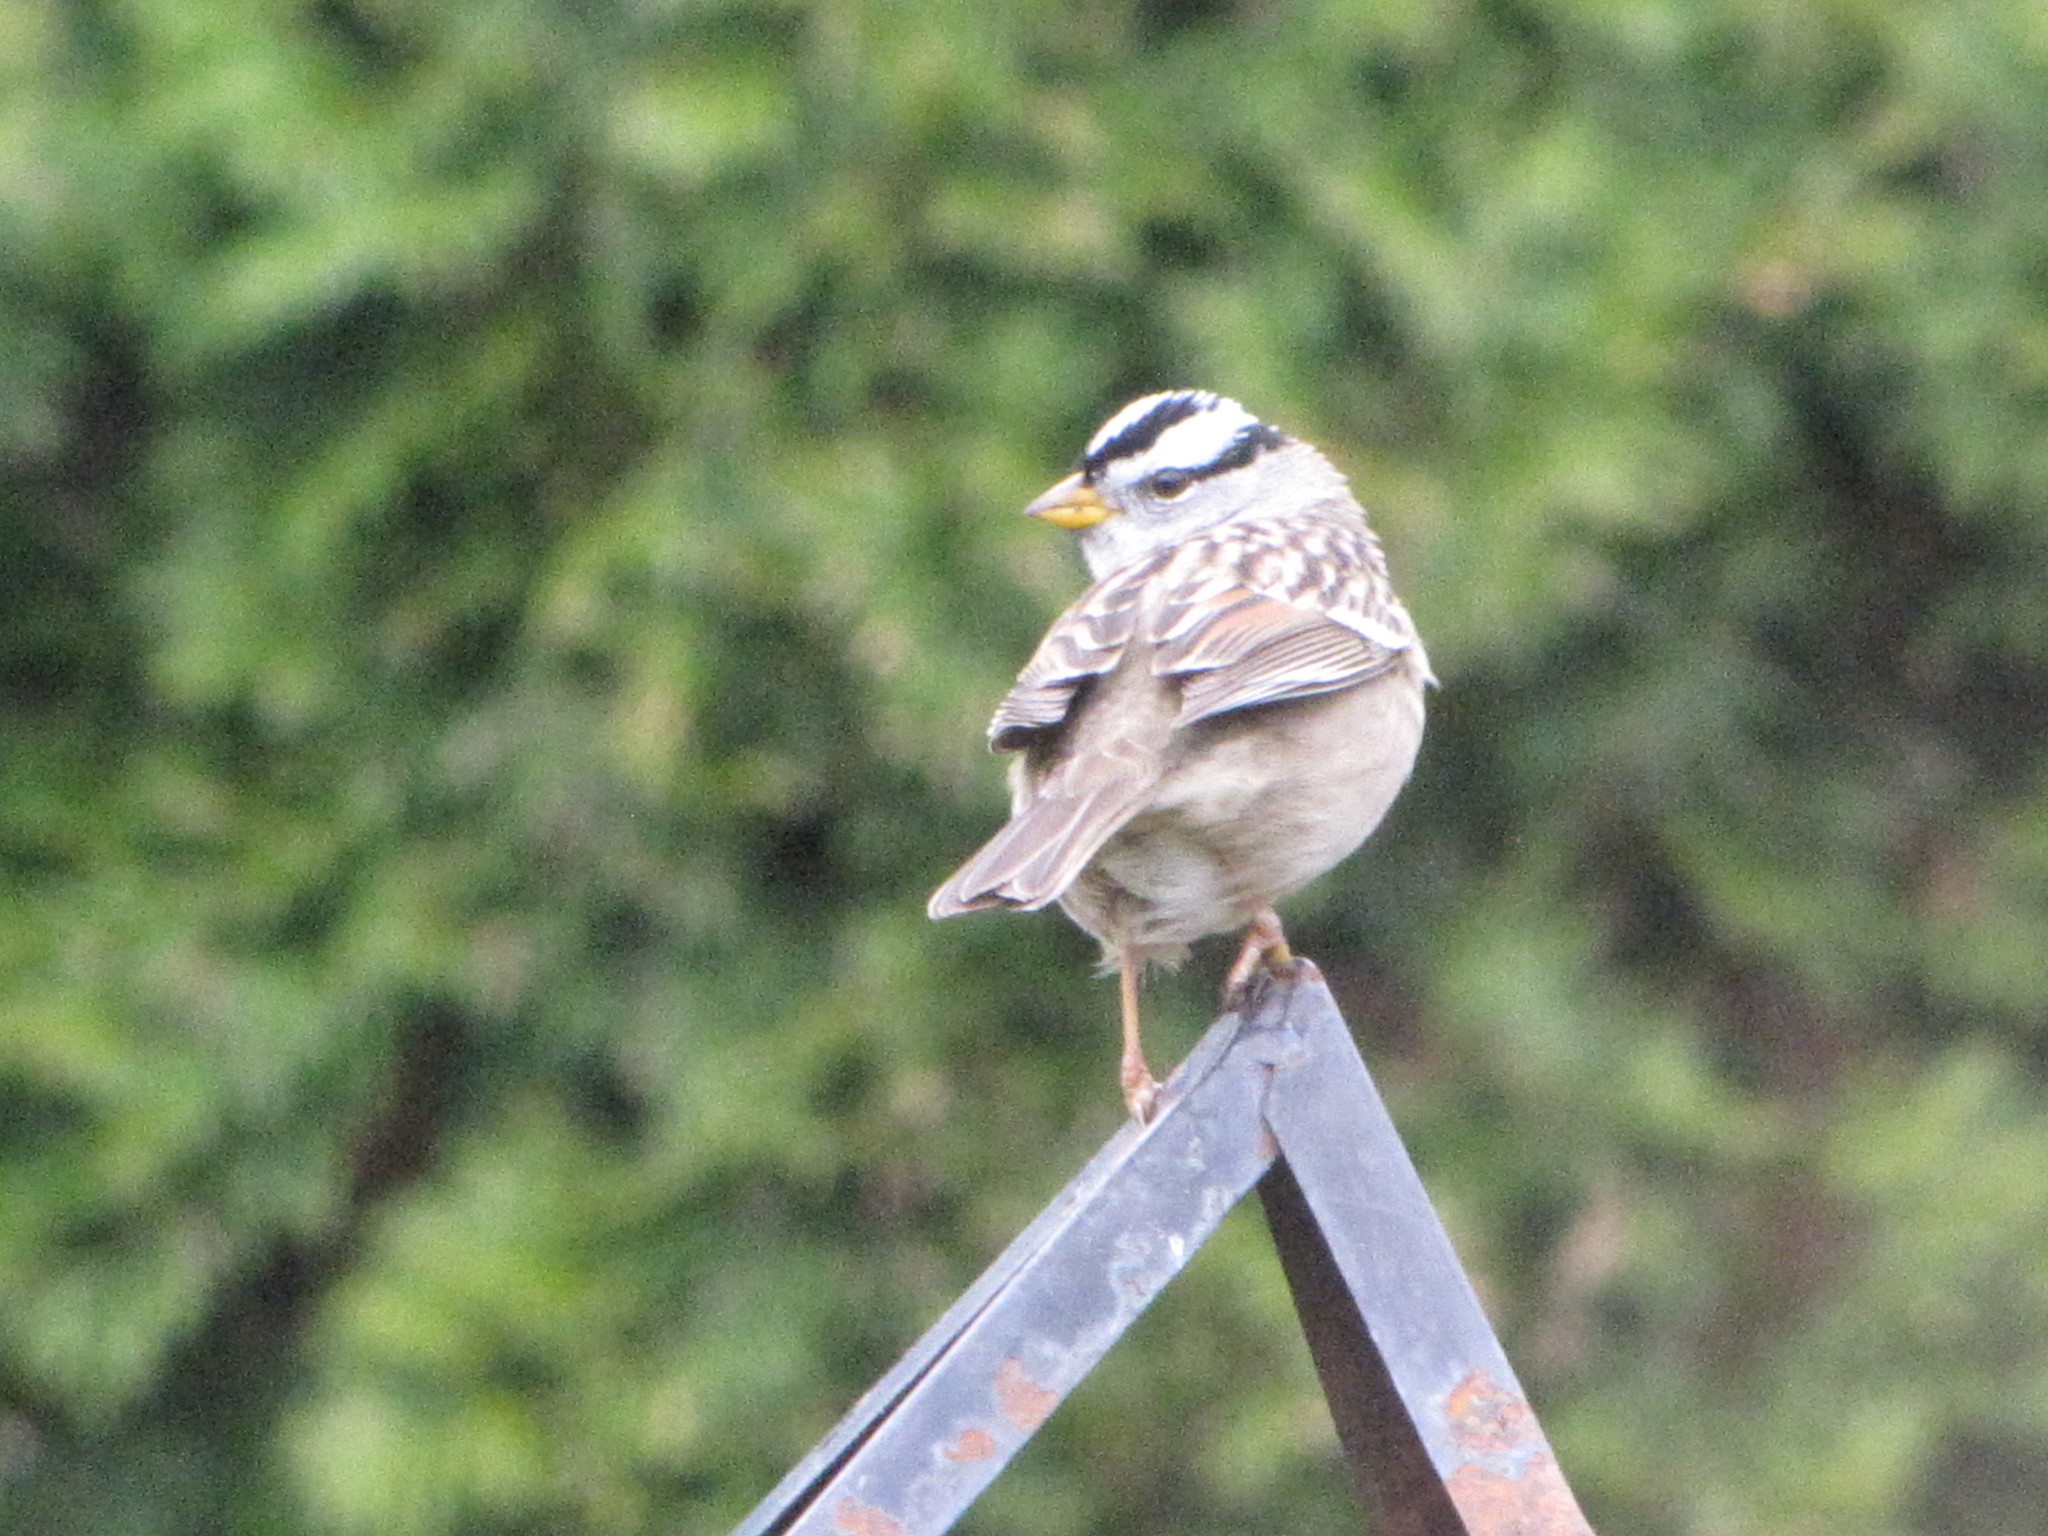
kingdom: Animalia
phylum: Chordata
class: Aves
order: Passeriformes
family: Passerellidae
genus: Zonotrichia
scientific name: Zonotrichia leucophrys
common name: White-crowned sparrow
